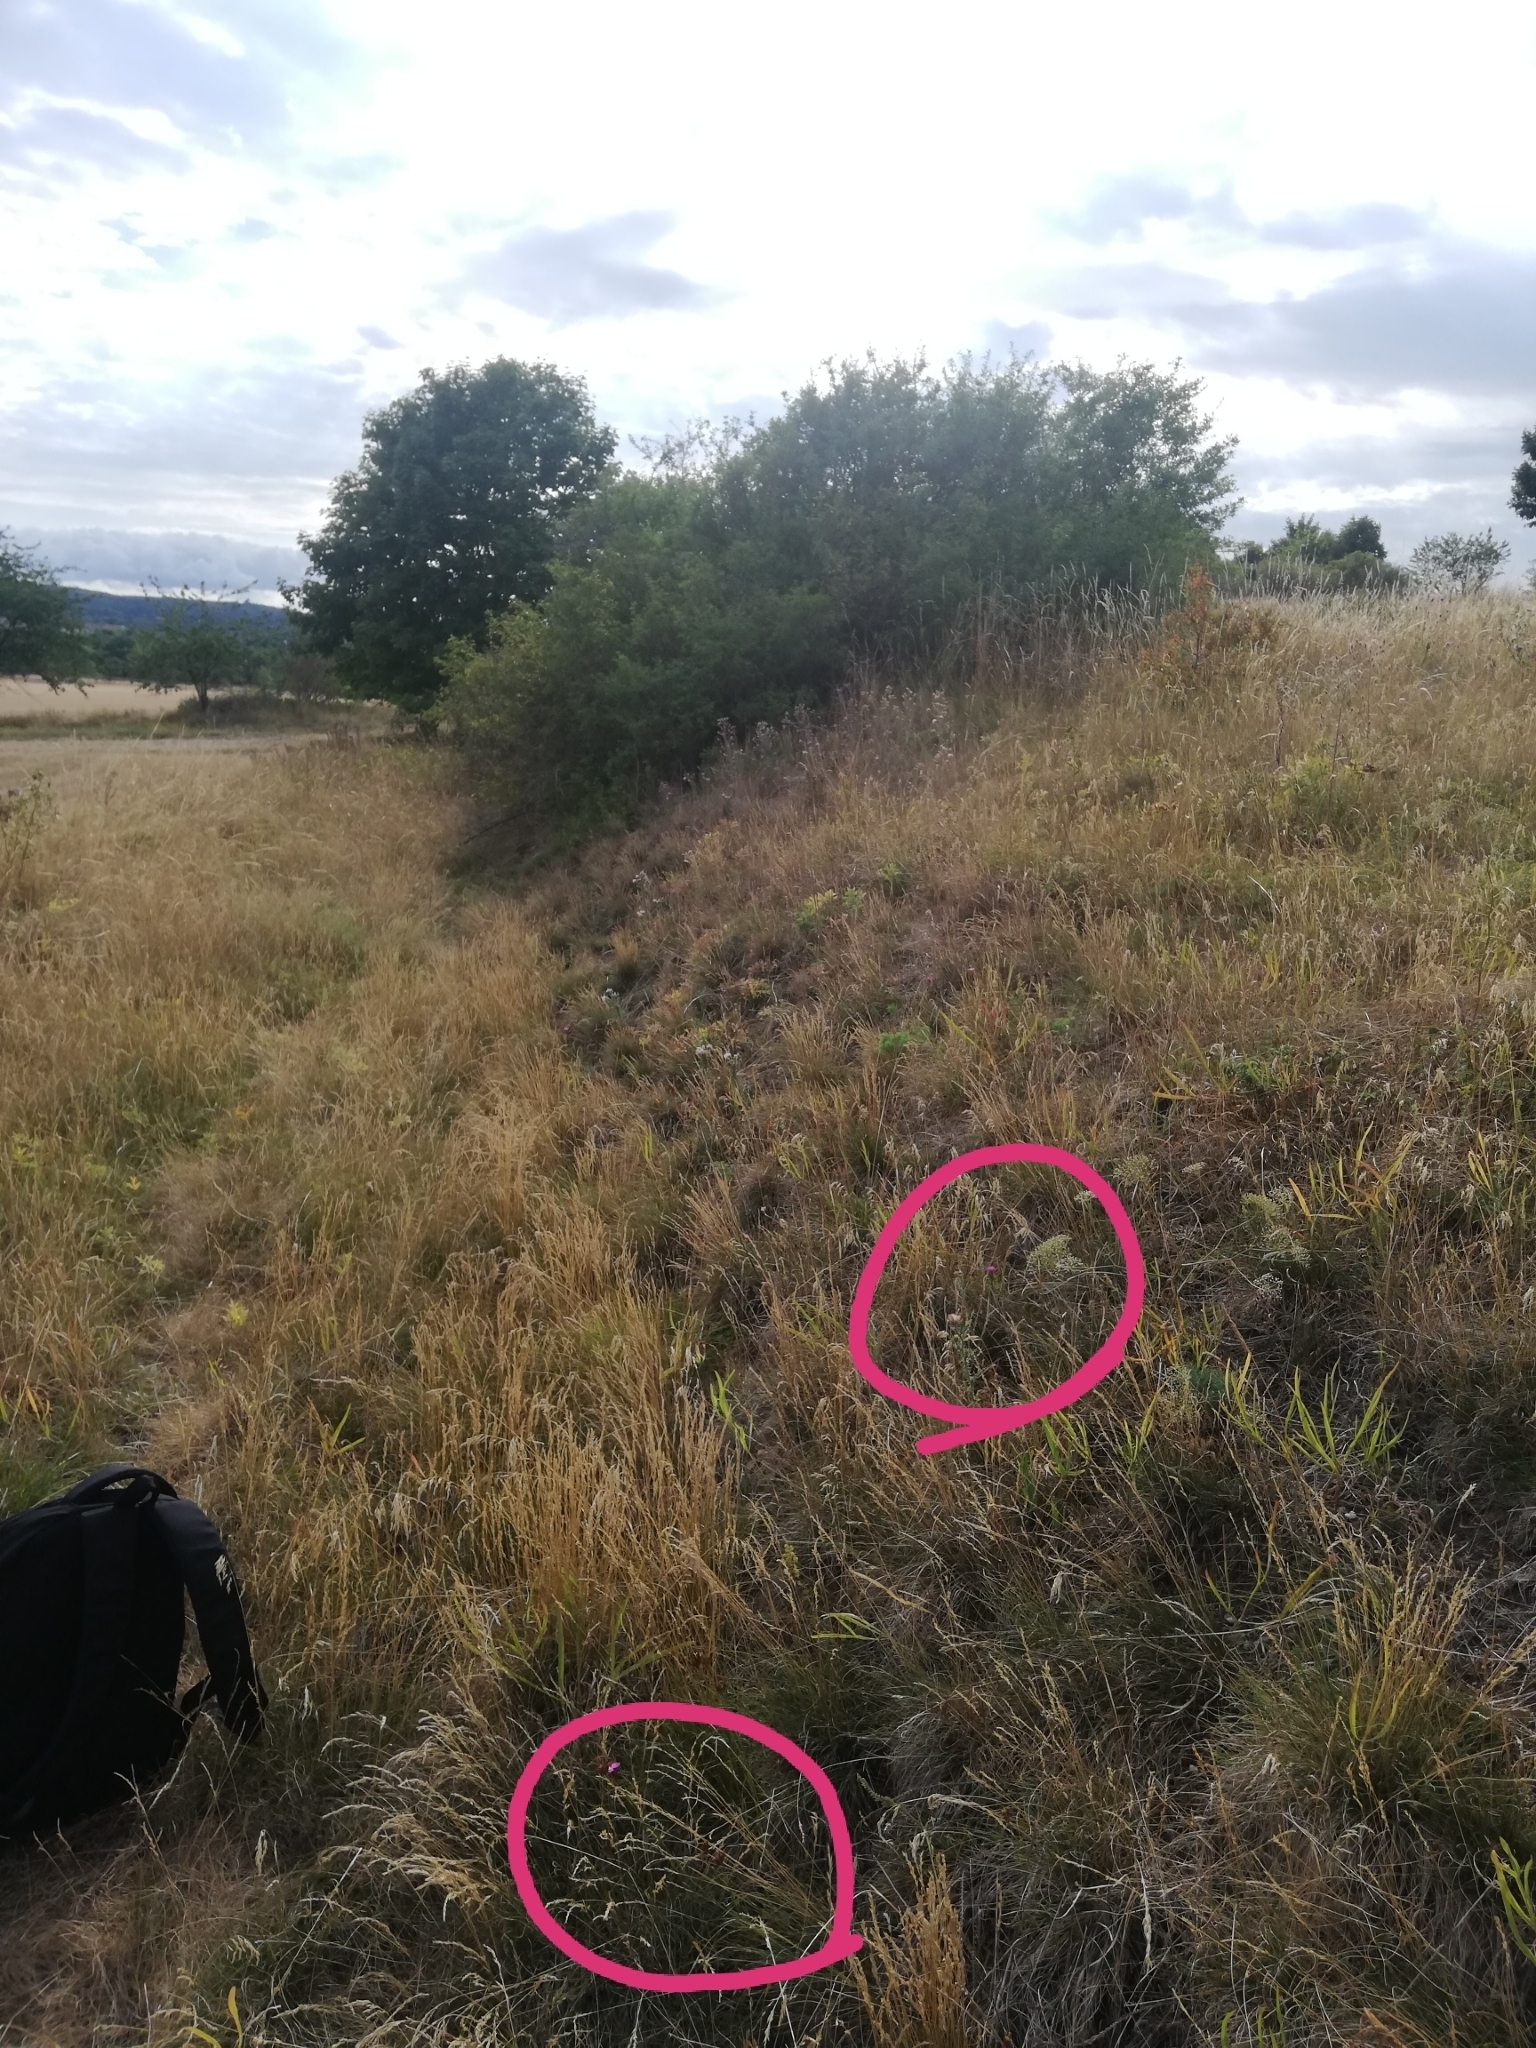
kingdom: Plantae
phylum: Tracheophyta
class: Magnoliopsida
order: Caryophyllales
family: Caryophyllaceae
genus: Dianthus
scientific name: Dianthus carthusianorum
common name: Carthusian pink
